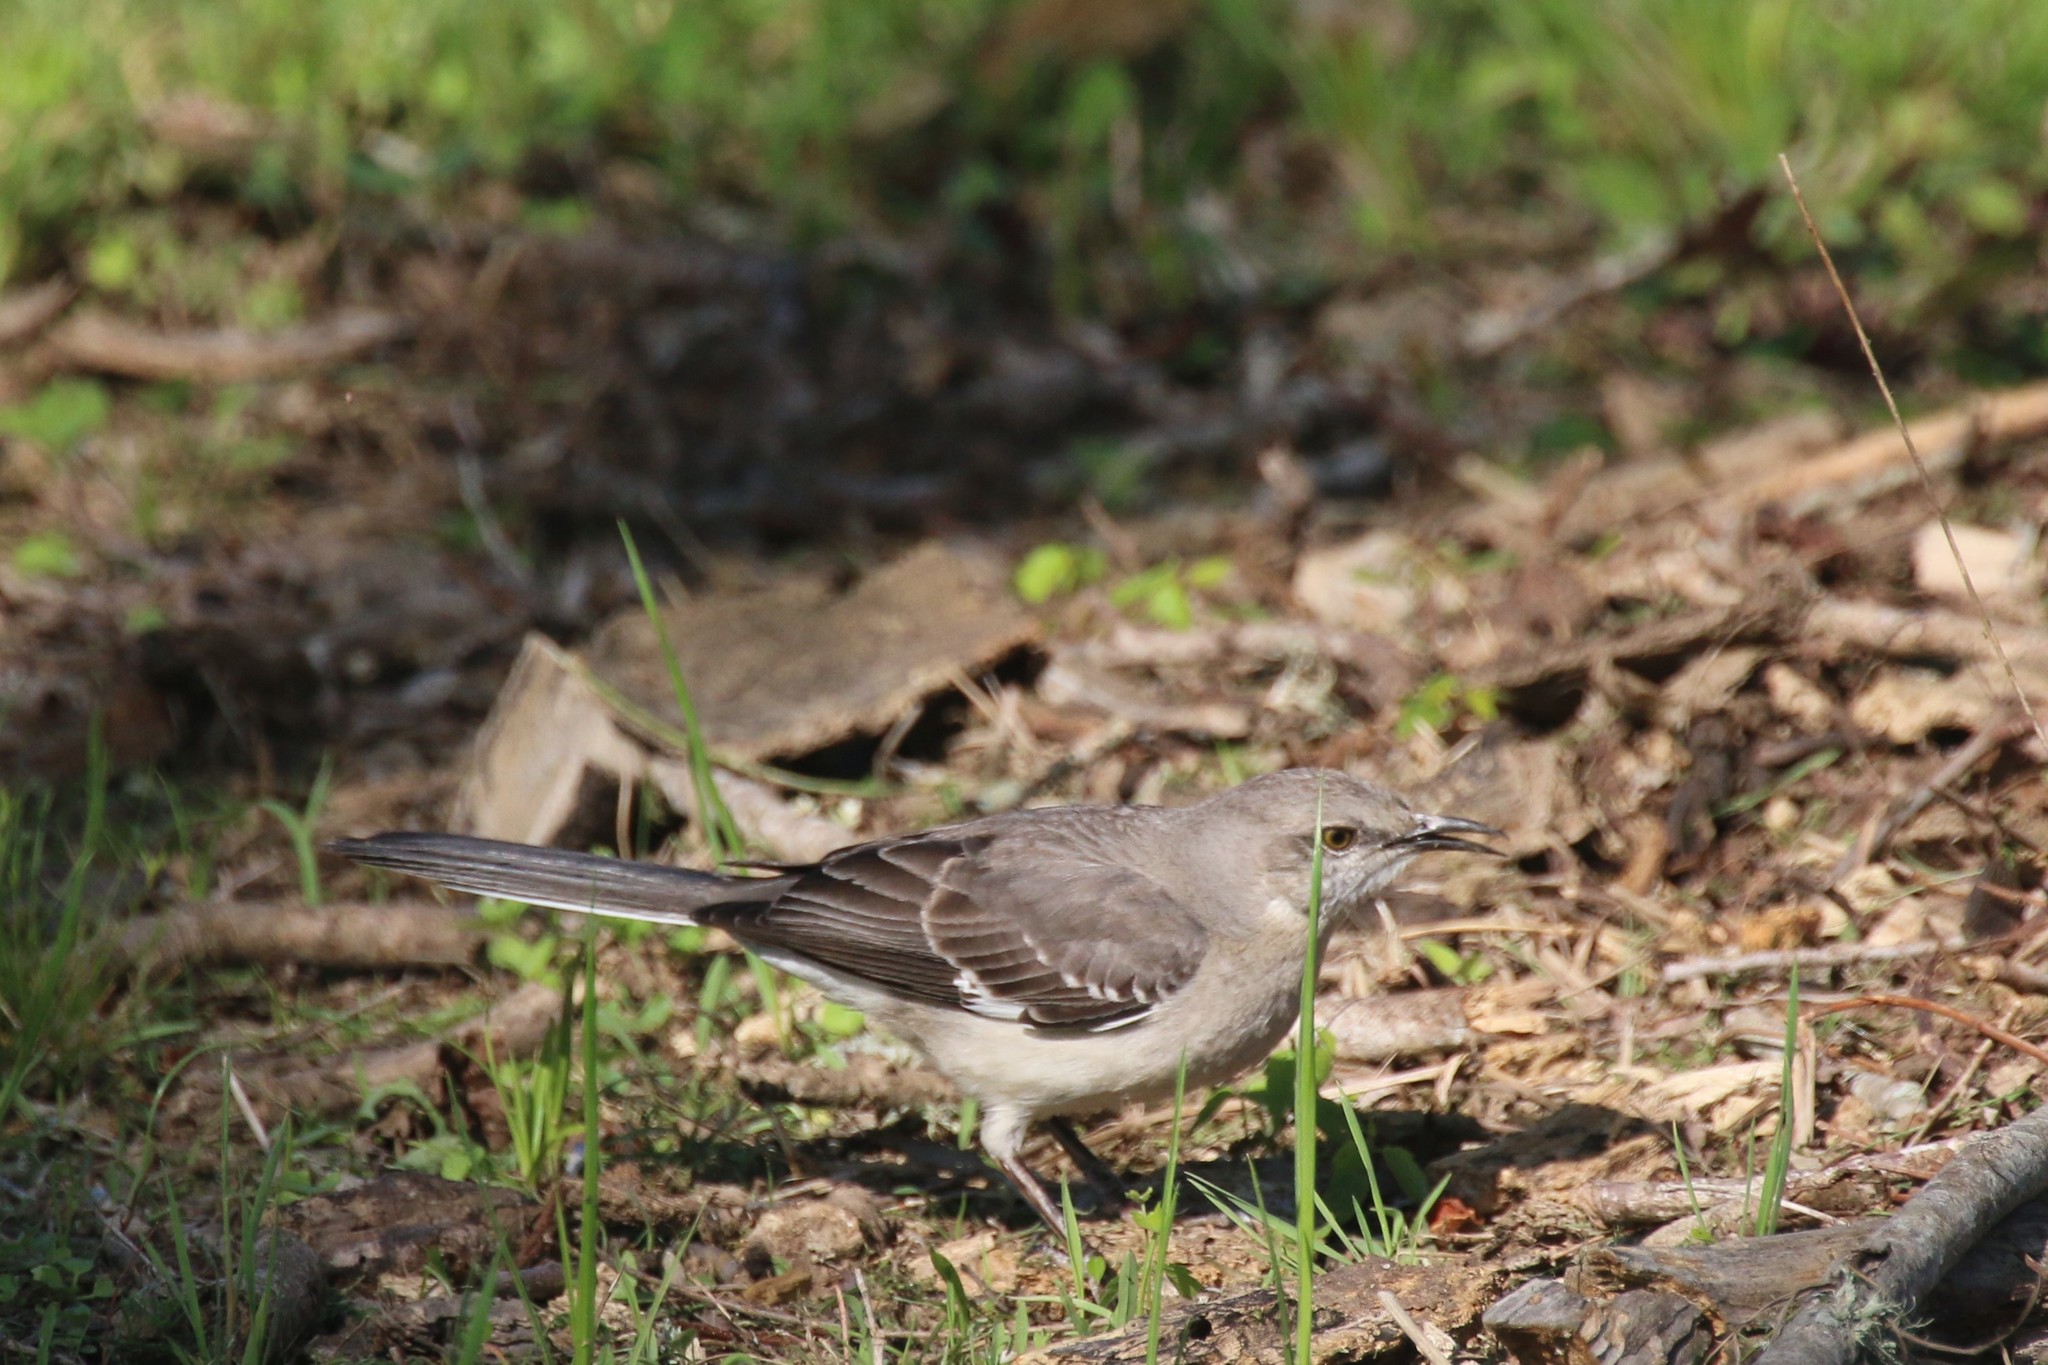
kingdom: Animalia
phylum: Chordata
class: Aves
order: Passeriformes
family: Mimidae
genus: Mimus
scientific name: Mimus polyglottos
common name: Northern mockingbird
